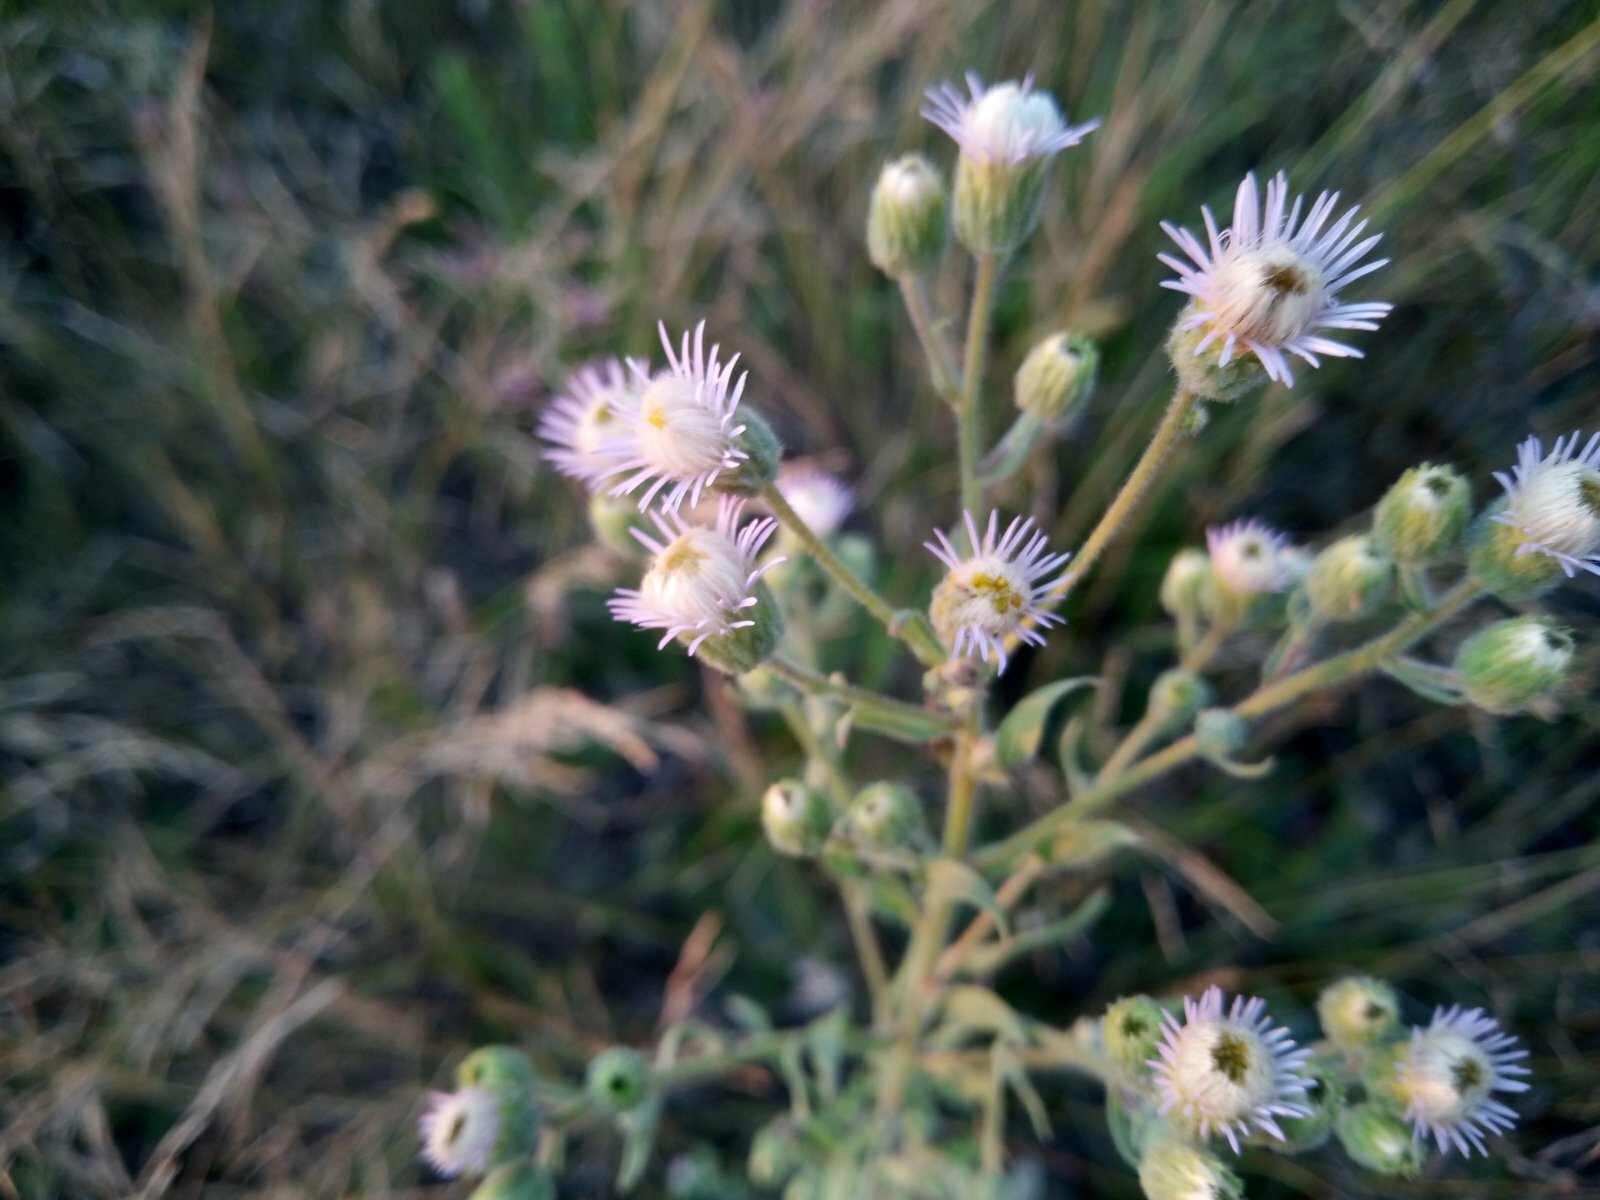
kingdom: Plantae
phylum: Tracheophyta
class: Magnoliopsida
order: Asterales
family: Asteraceae
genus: Erigeron
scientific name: Erigeron acris
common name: Blue fleabane
